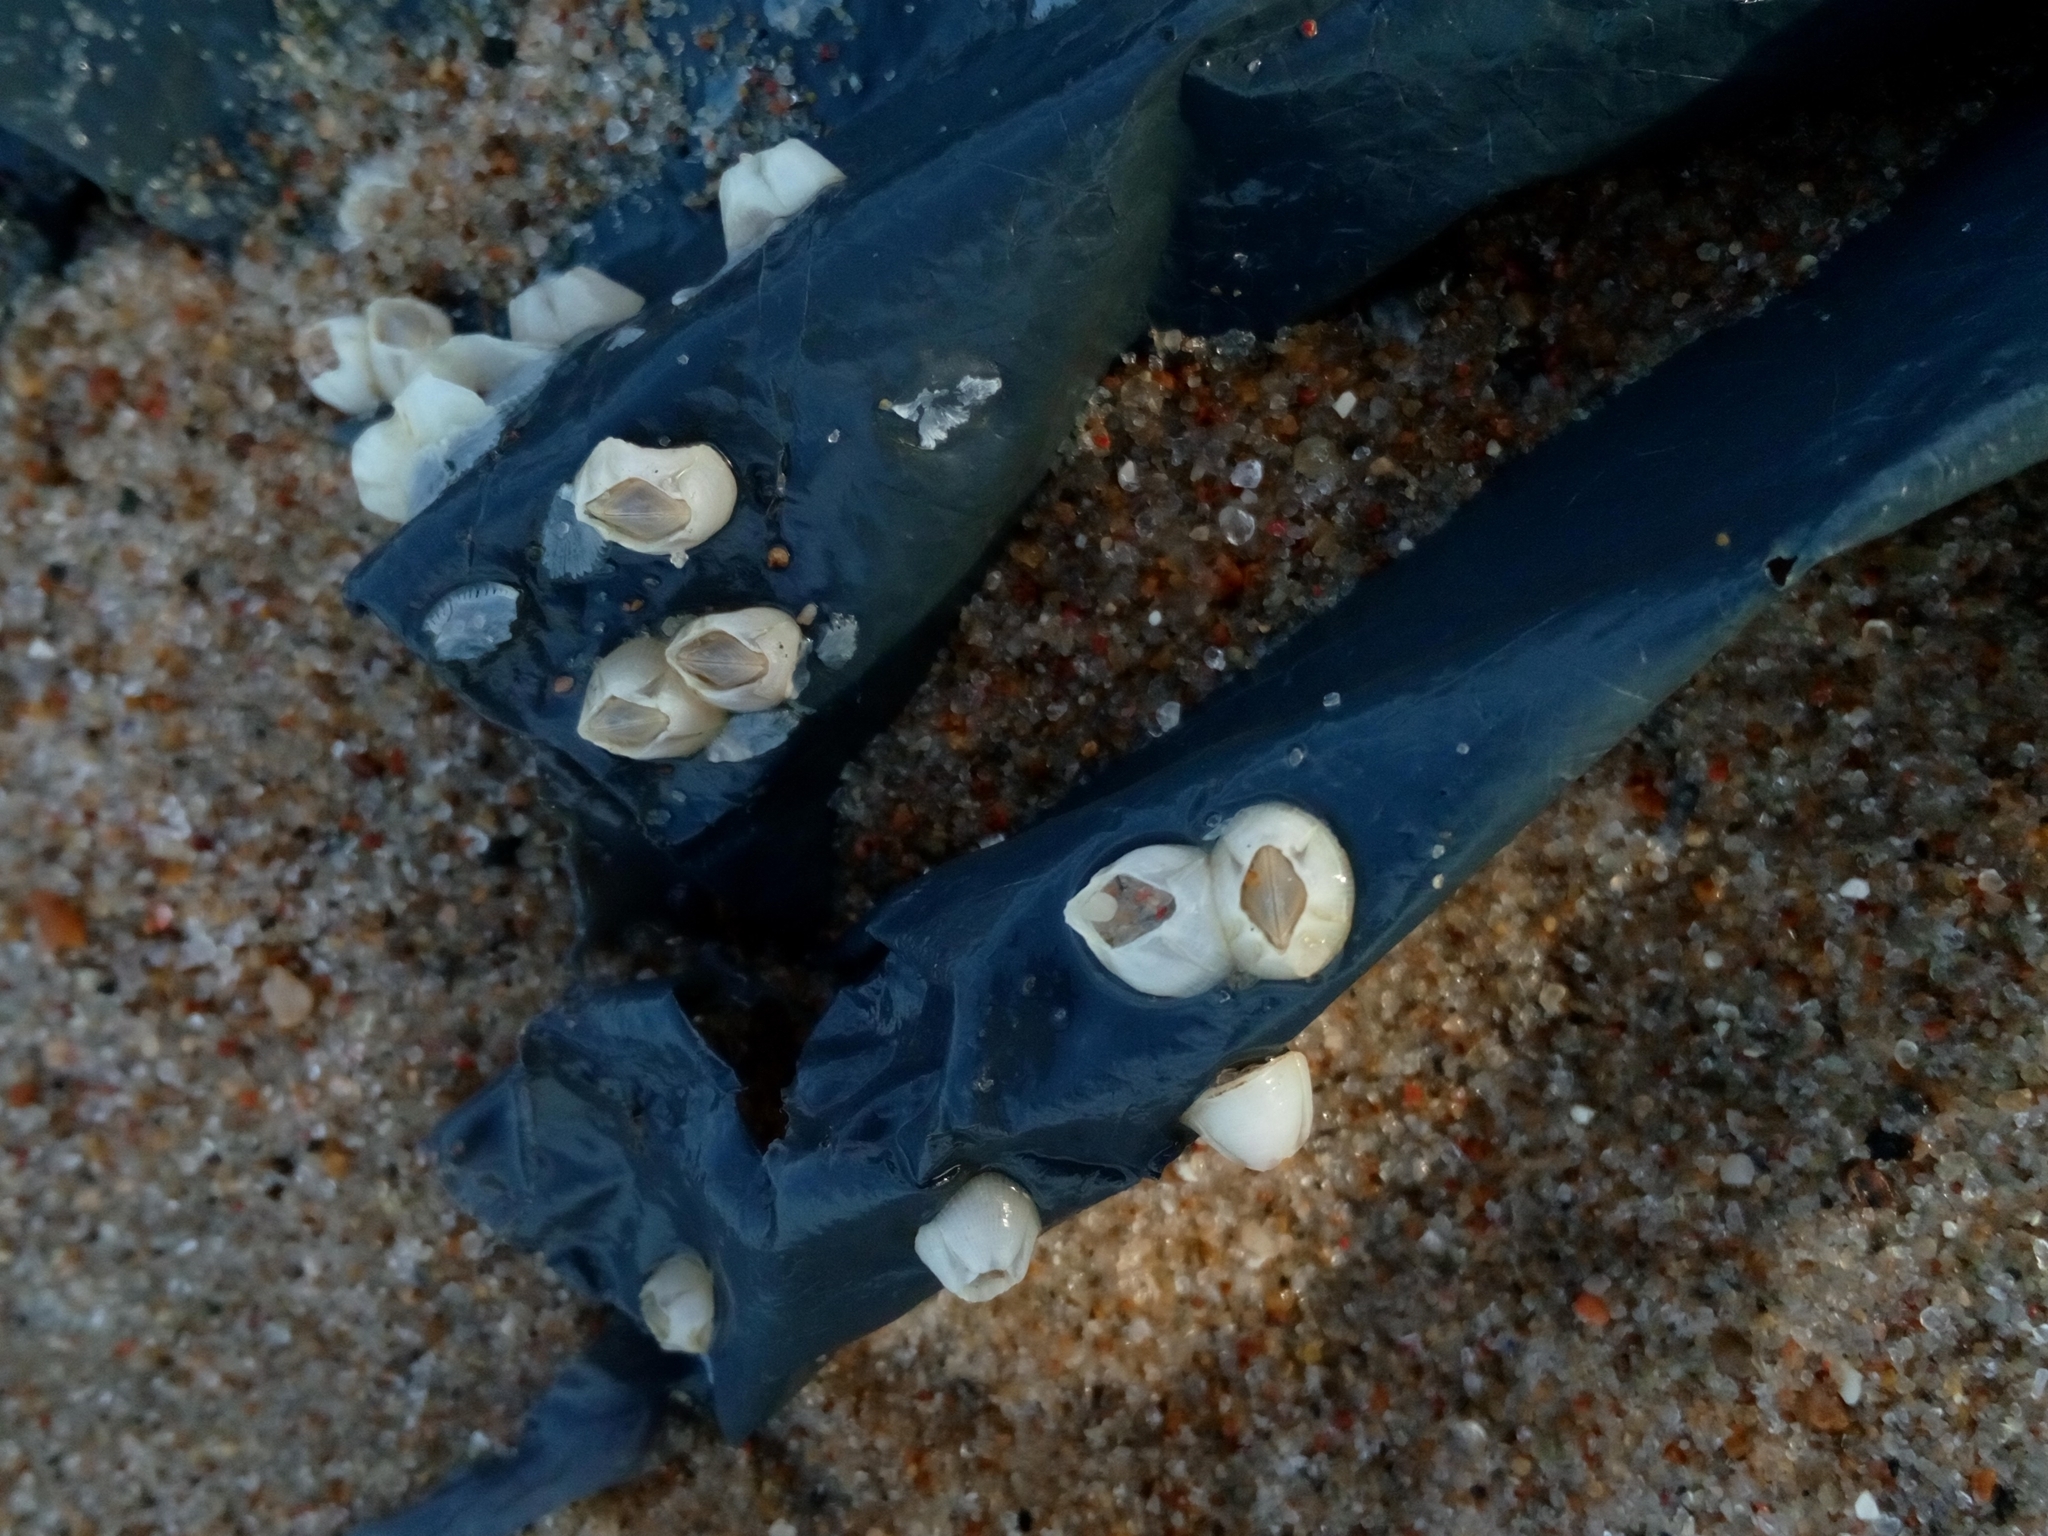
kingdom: Animalia
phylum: Arthropoda
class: Maxillopoda
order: Sessilia
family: Balanidae
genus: Amphibalanus
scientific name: Amphibalanus improvisus
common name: Bay barnacle
